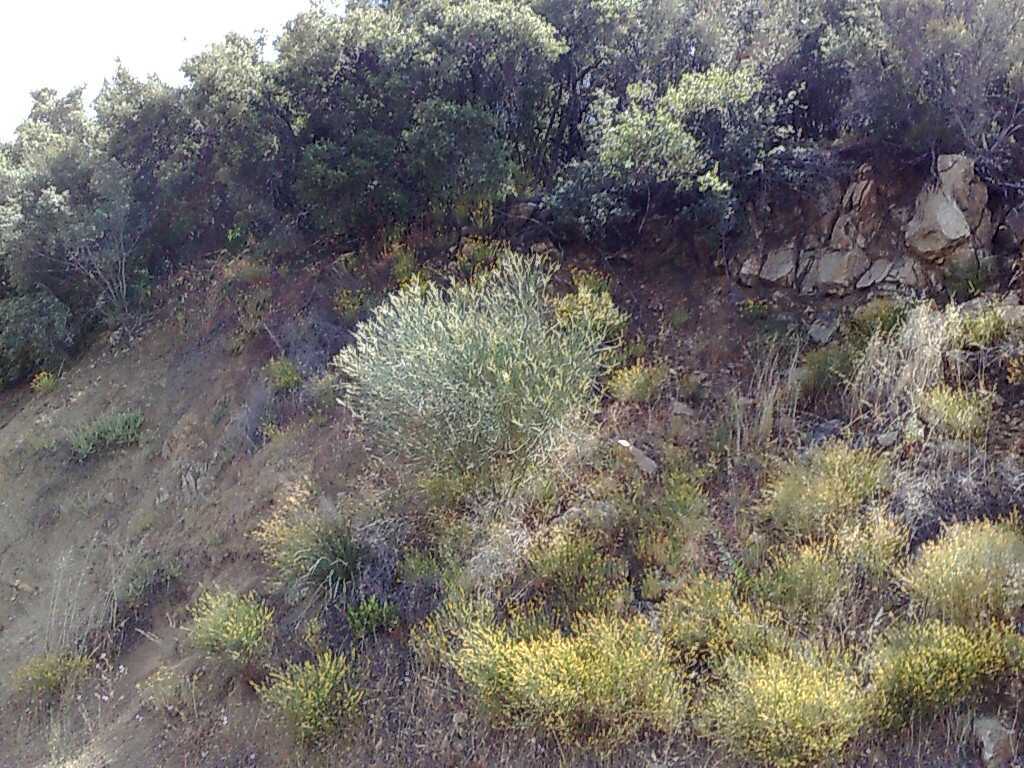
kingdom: Plantae
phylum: Tracheophyta
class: Magnoliopsida
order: Fabales
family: Fabaceae
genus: Spartium
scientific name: Spartium junceum
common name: Spanish broom
